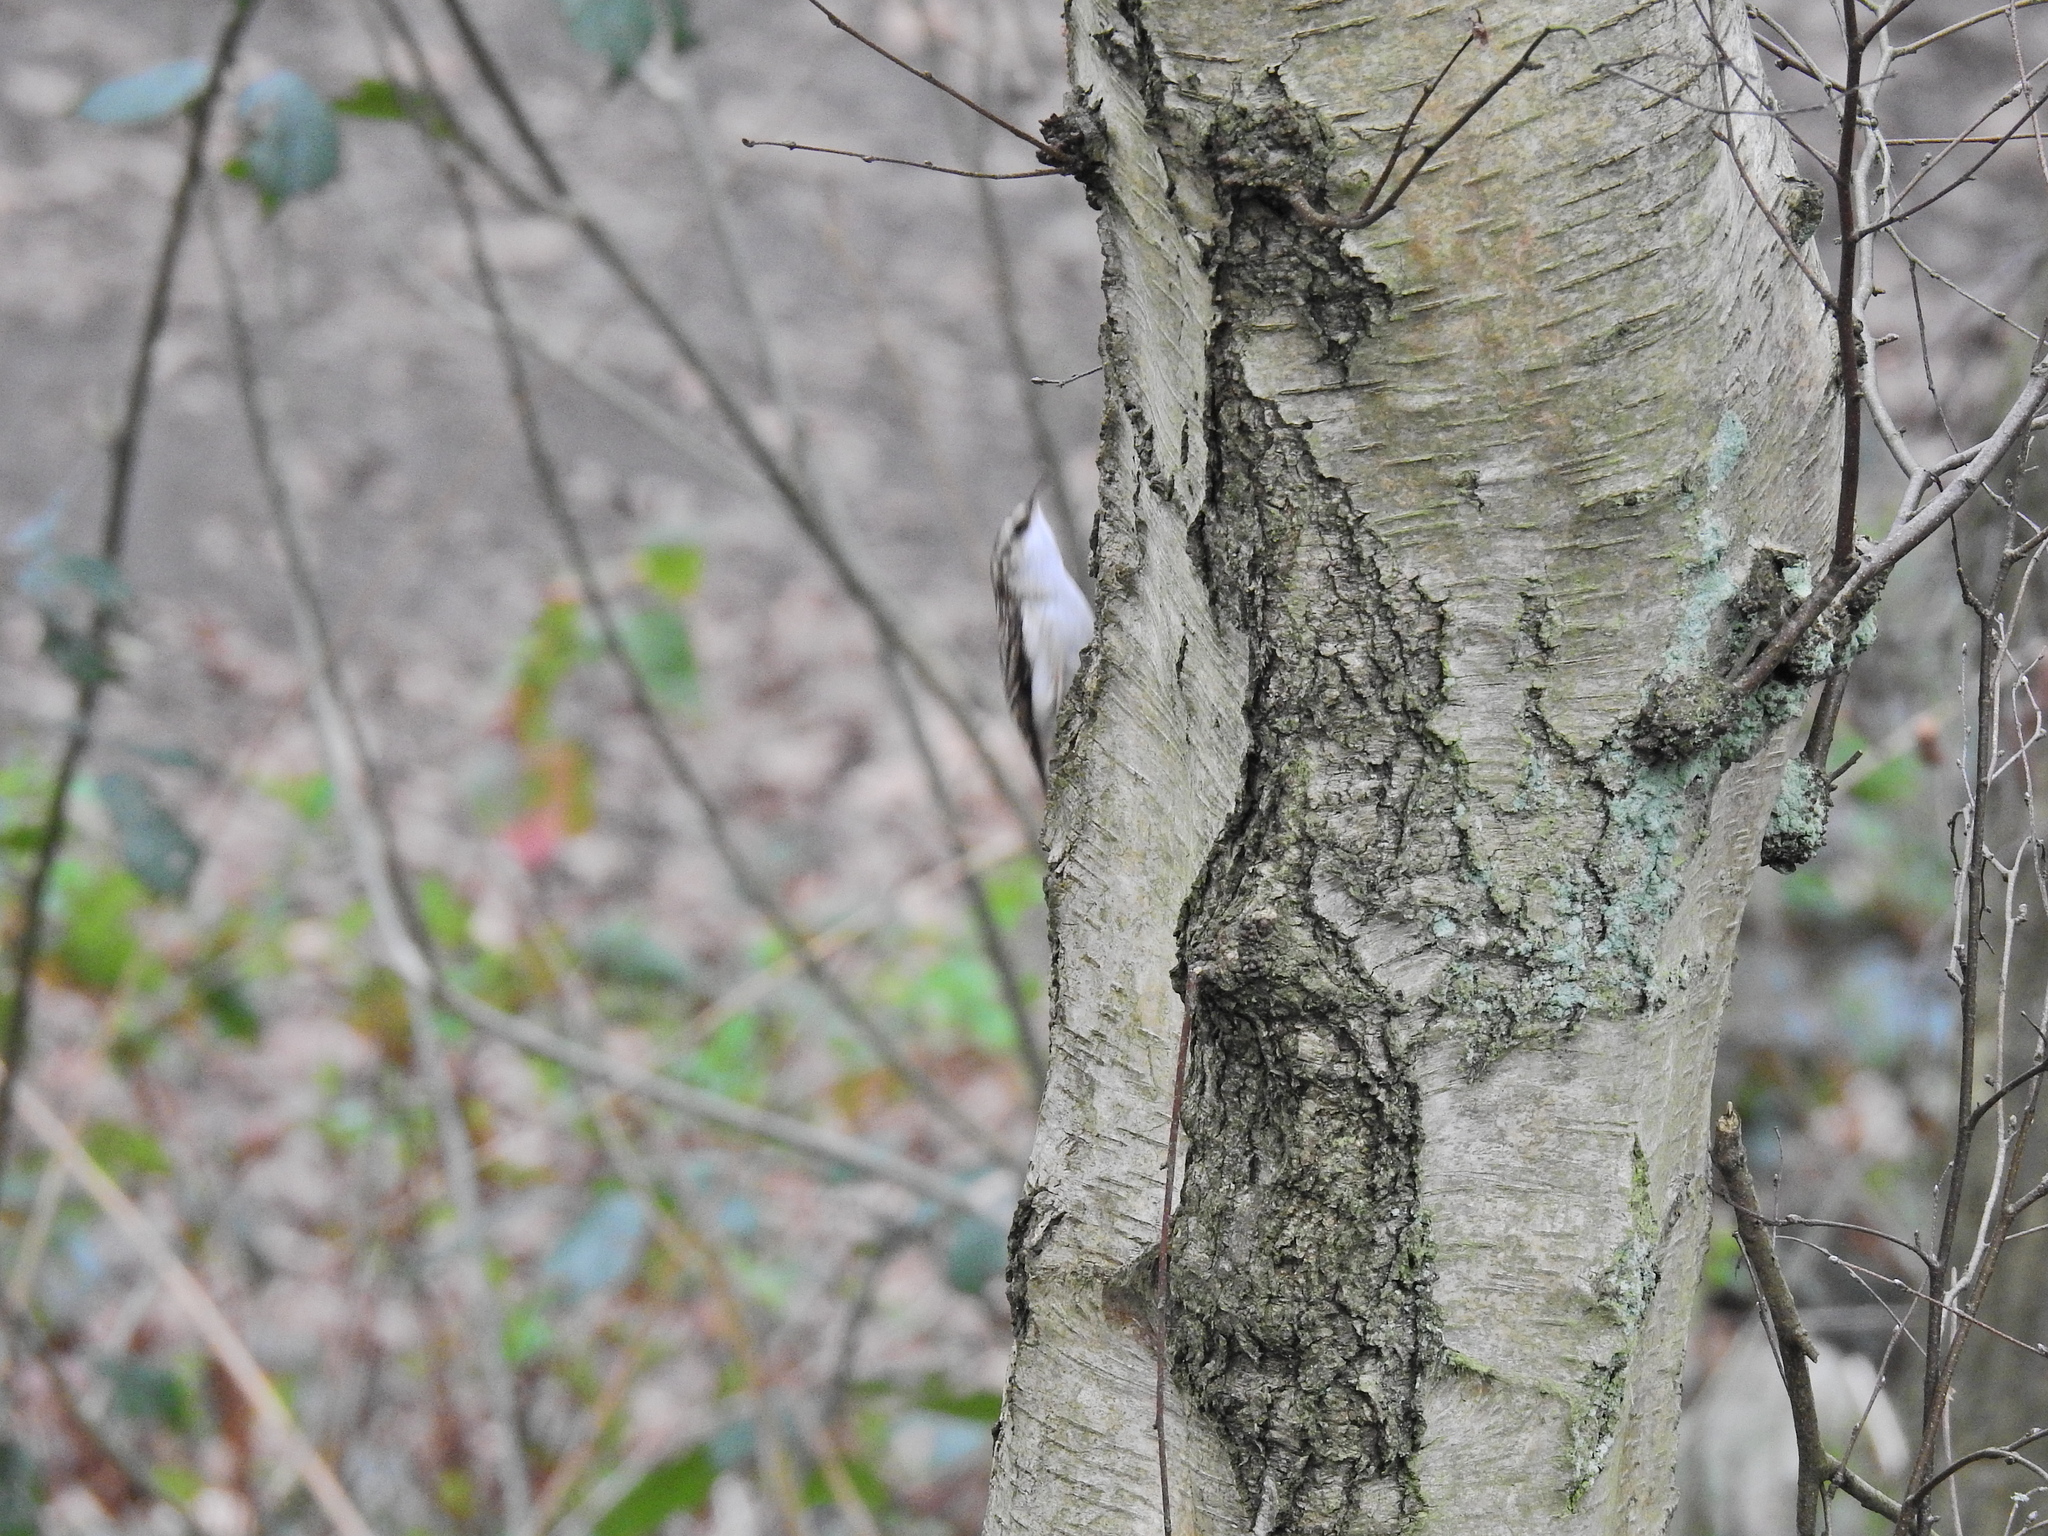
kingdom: Animalia
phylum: Chordata
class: Aves
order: Passeriformes
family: Certhiidae
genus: Certhia
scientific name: Certhia familiaris
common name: Eurasian treecreeper
